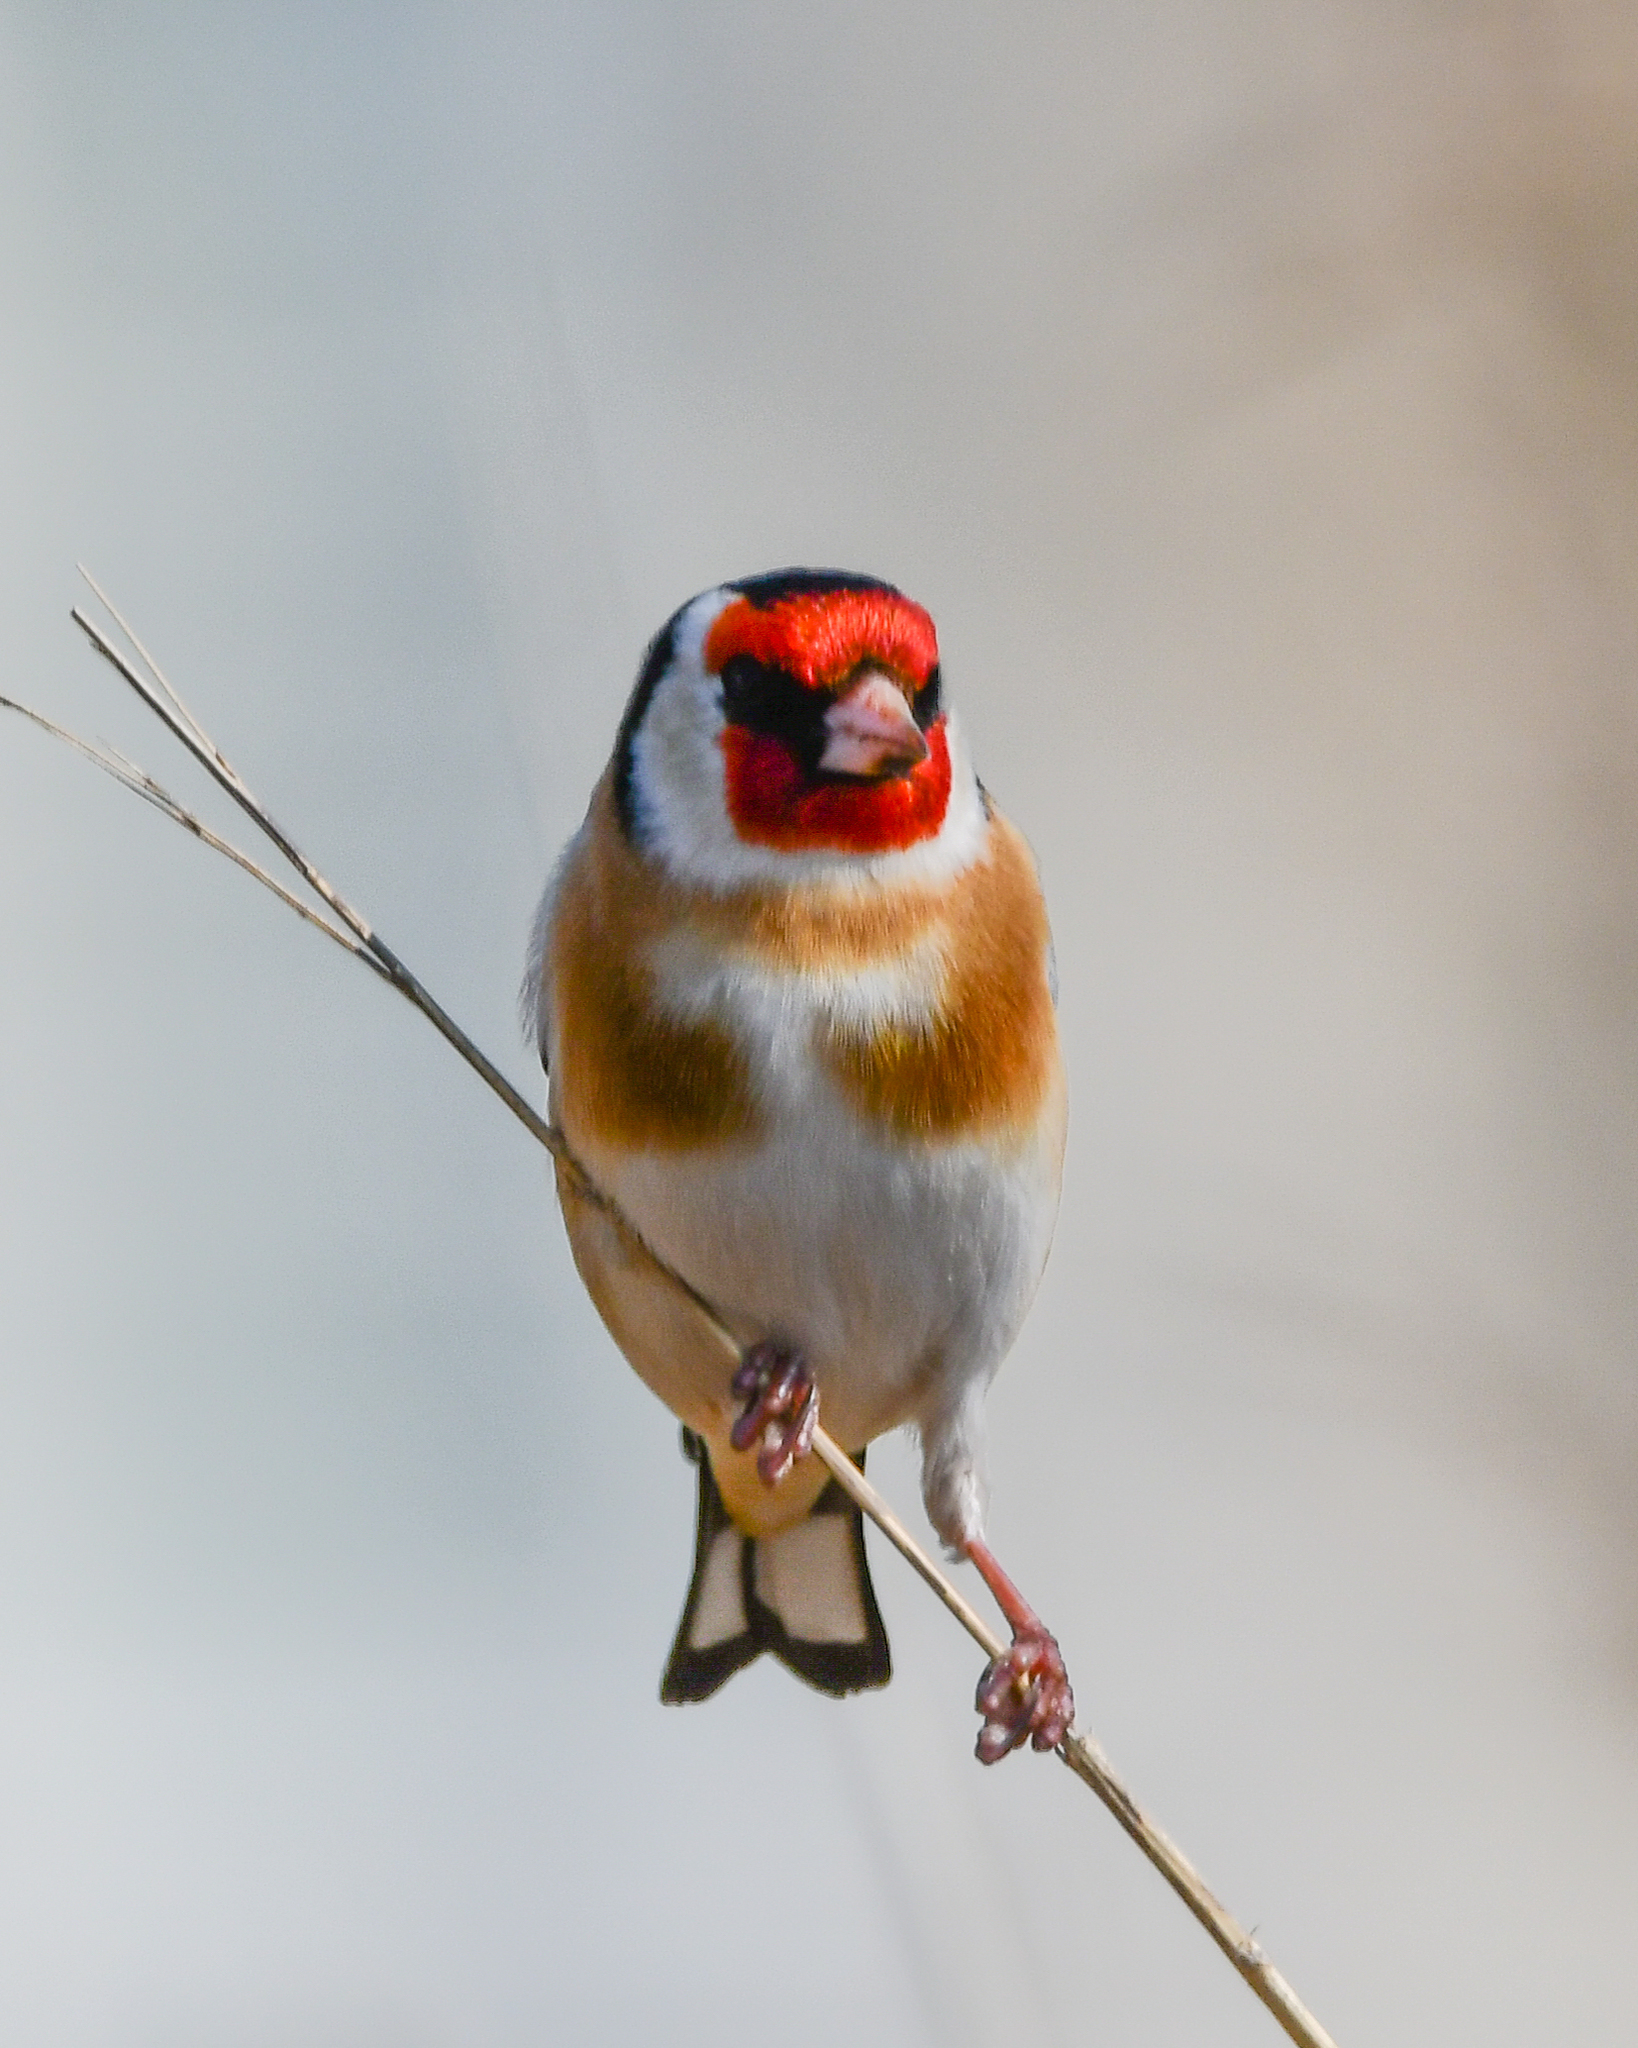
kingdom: Animalia
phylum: Chordata
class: Aves
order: Passeriformes
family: Fringillidae
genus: Carduelis
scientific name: Carduelis carduelis
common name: European goldfinch
